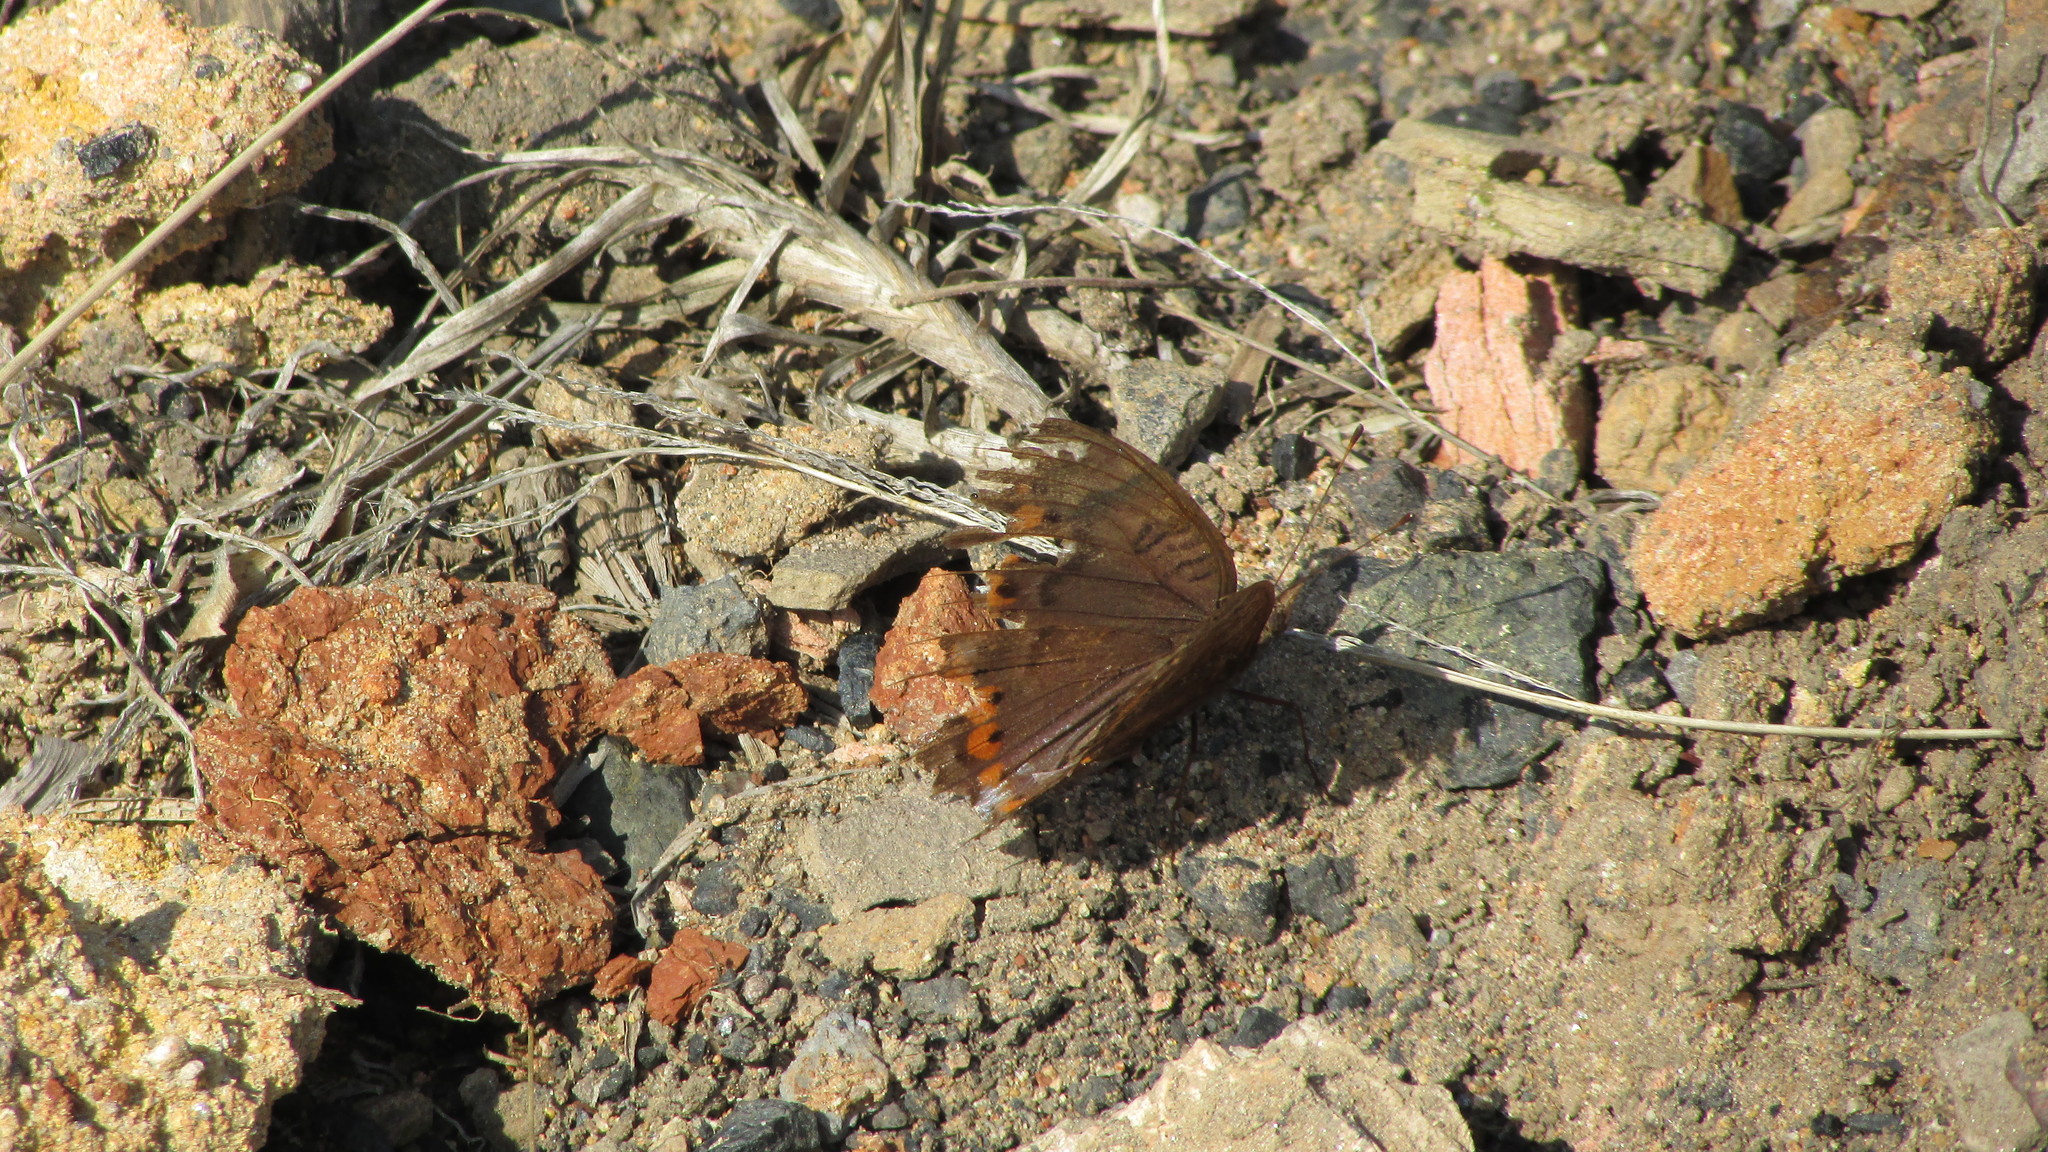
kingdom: Animalia
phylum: Arthropoda
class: Insecta
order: Lepidoptera
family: Nymphalidae
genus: Precis
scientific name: Precis octavia
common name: Gaudy commodore
